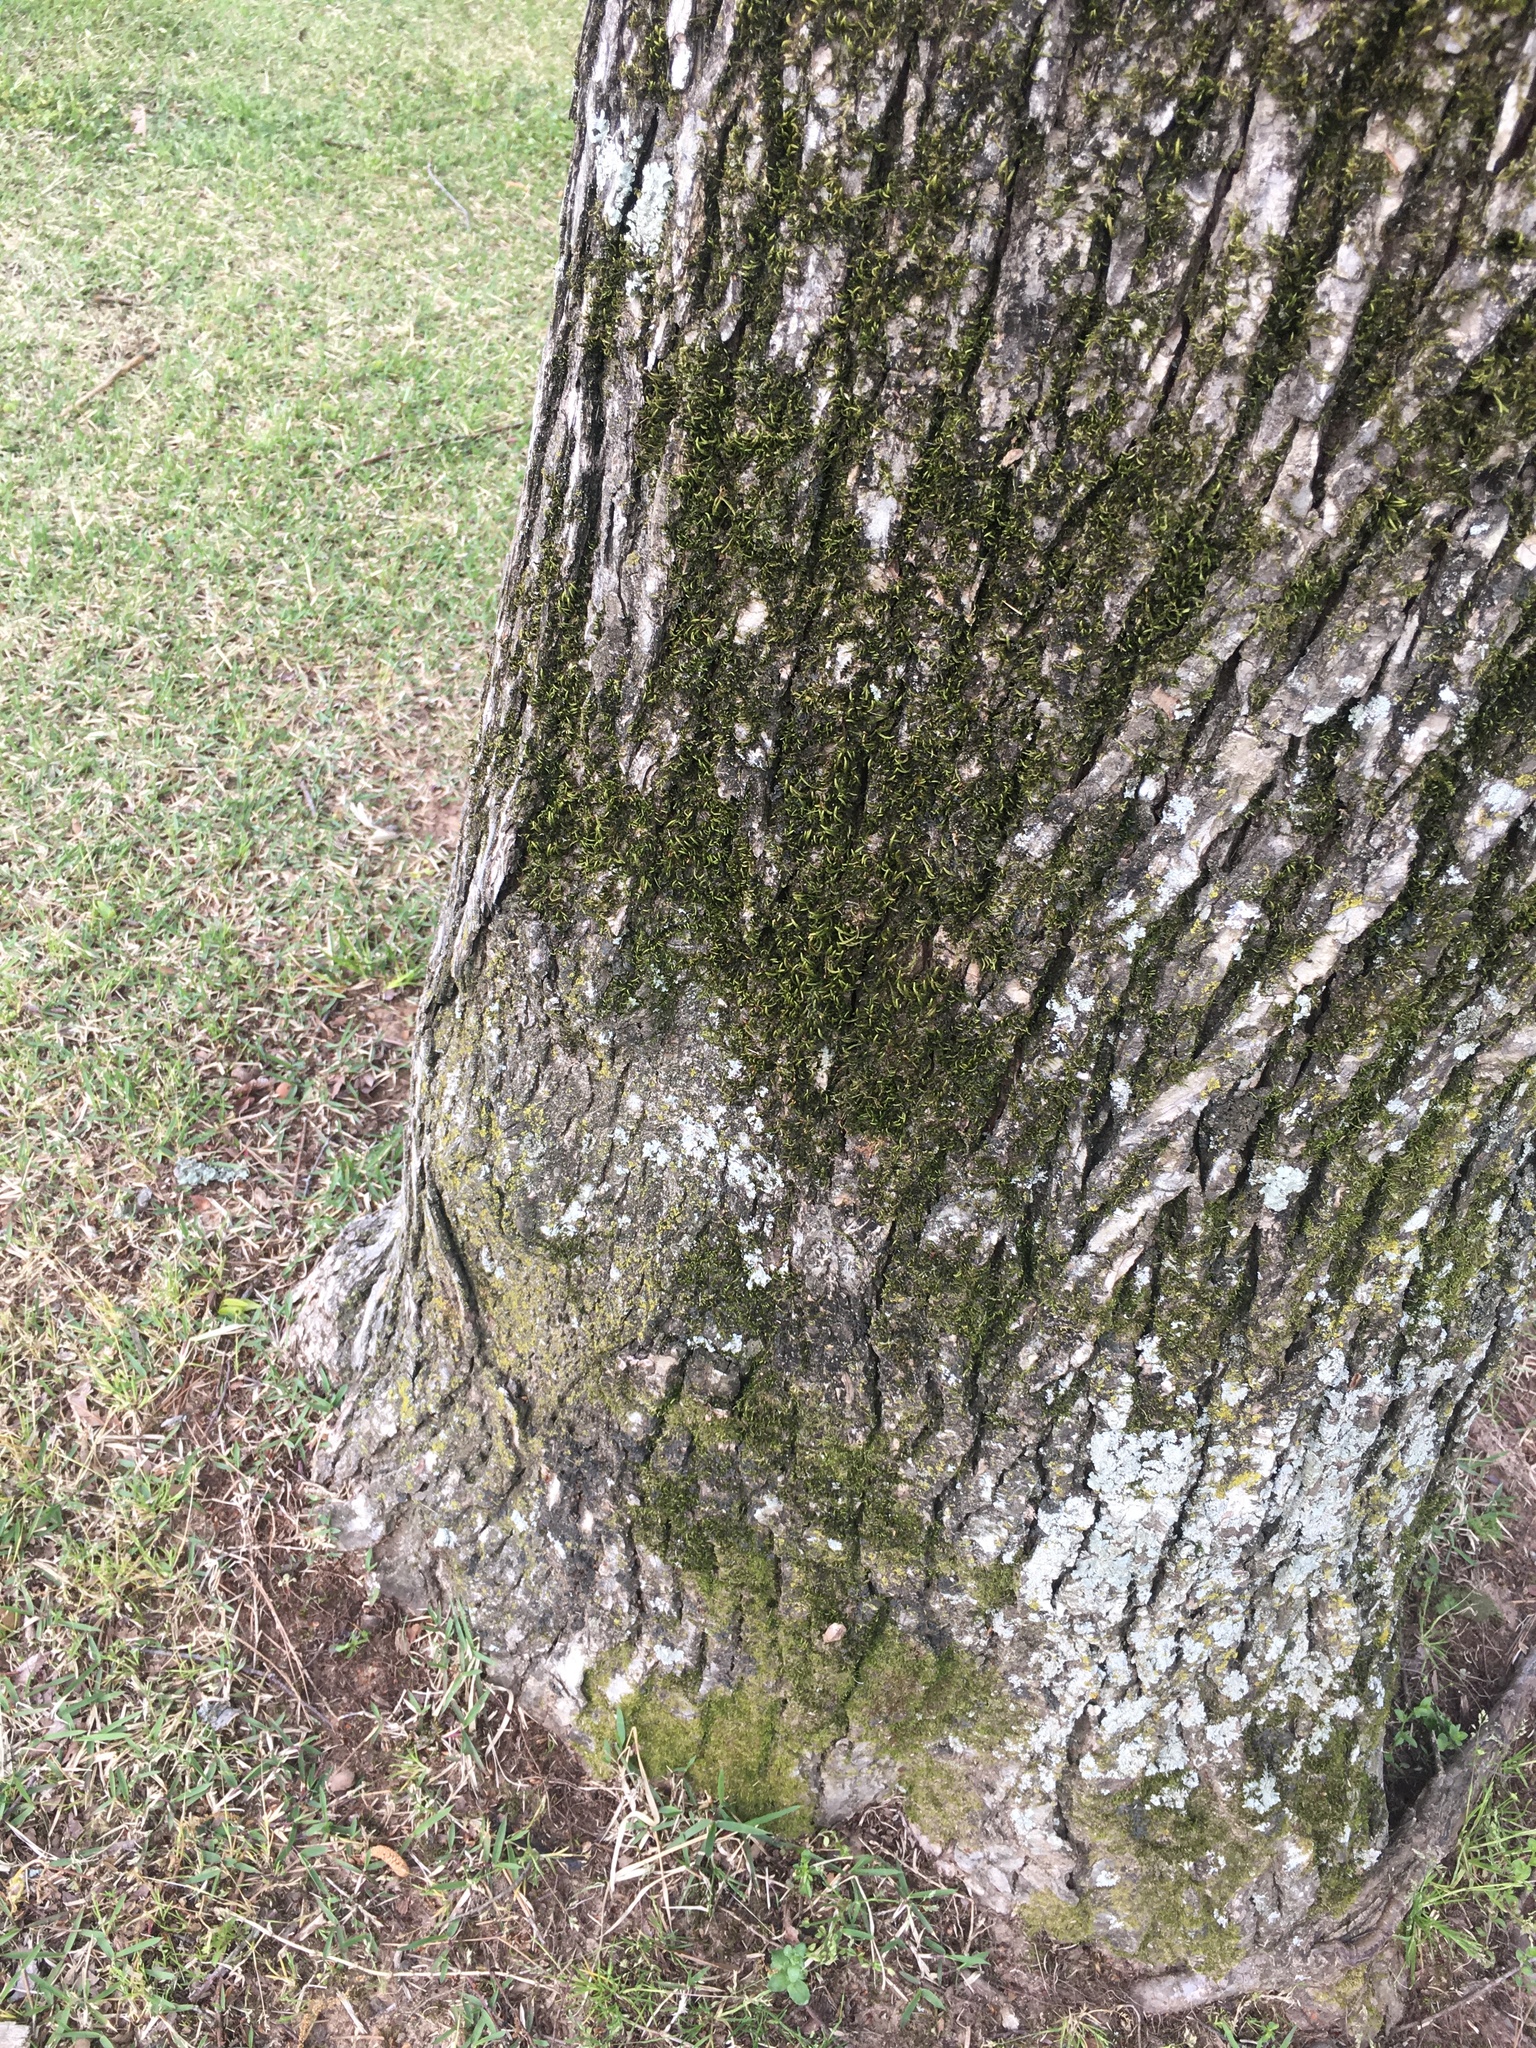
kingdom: Plantae
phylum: Tracheophyta
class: Magnoliopsida
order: Rosales
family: Ulmaceae
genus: Ulmus
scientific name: Ulmus crassifolia
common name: Basket elm
